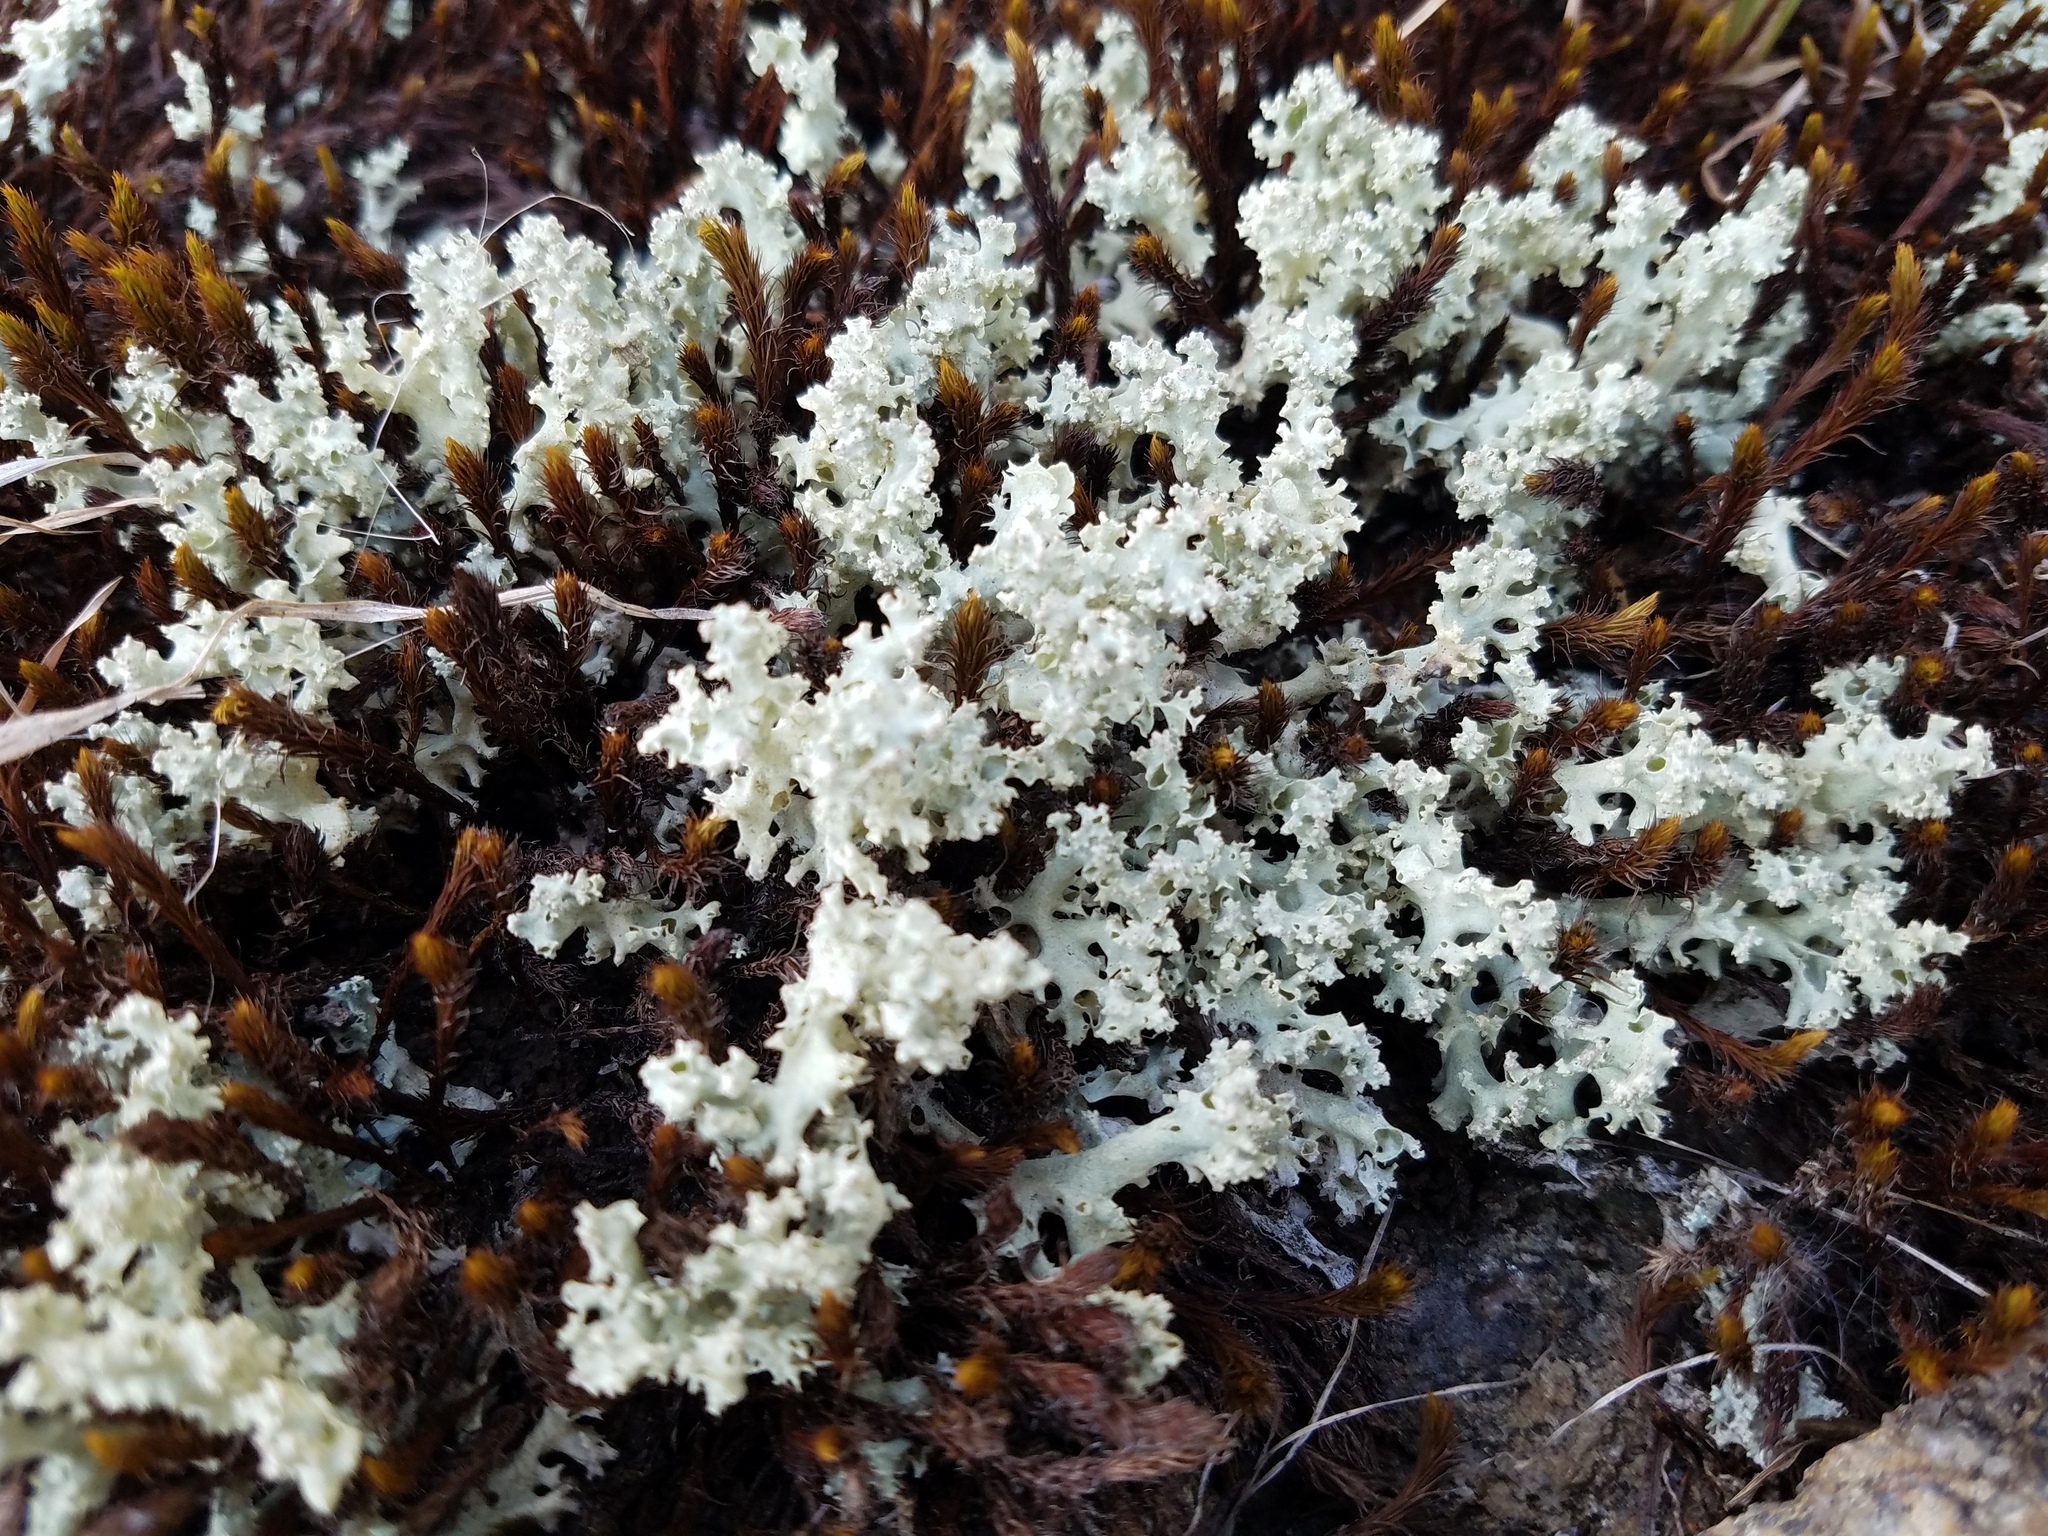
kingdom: Fungi
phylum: Ascomycota
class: Lecanoromycetes
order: Lecanorales
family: Cladoniaceae
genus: Cladonia
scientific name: Cladonia caroliniana
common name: Granite thorn
